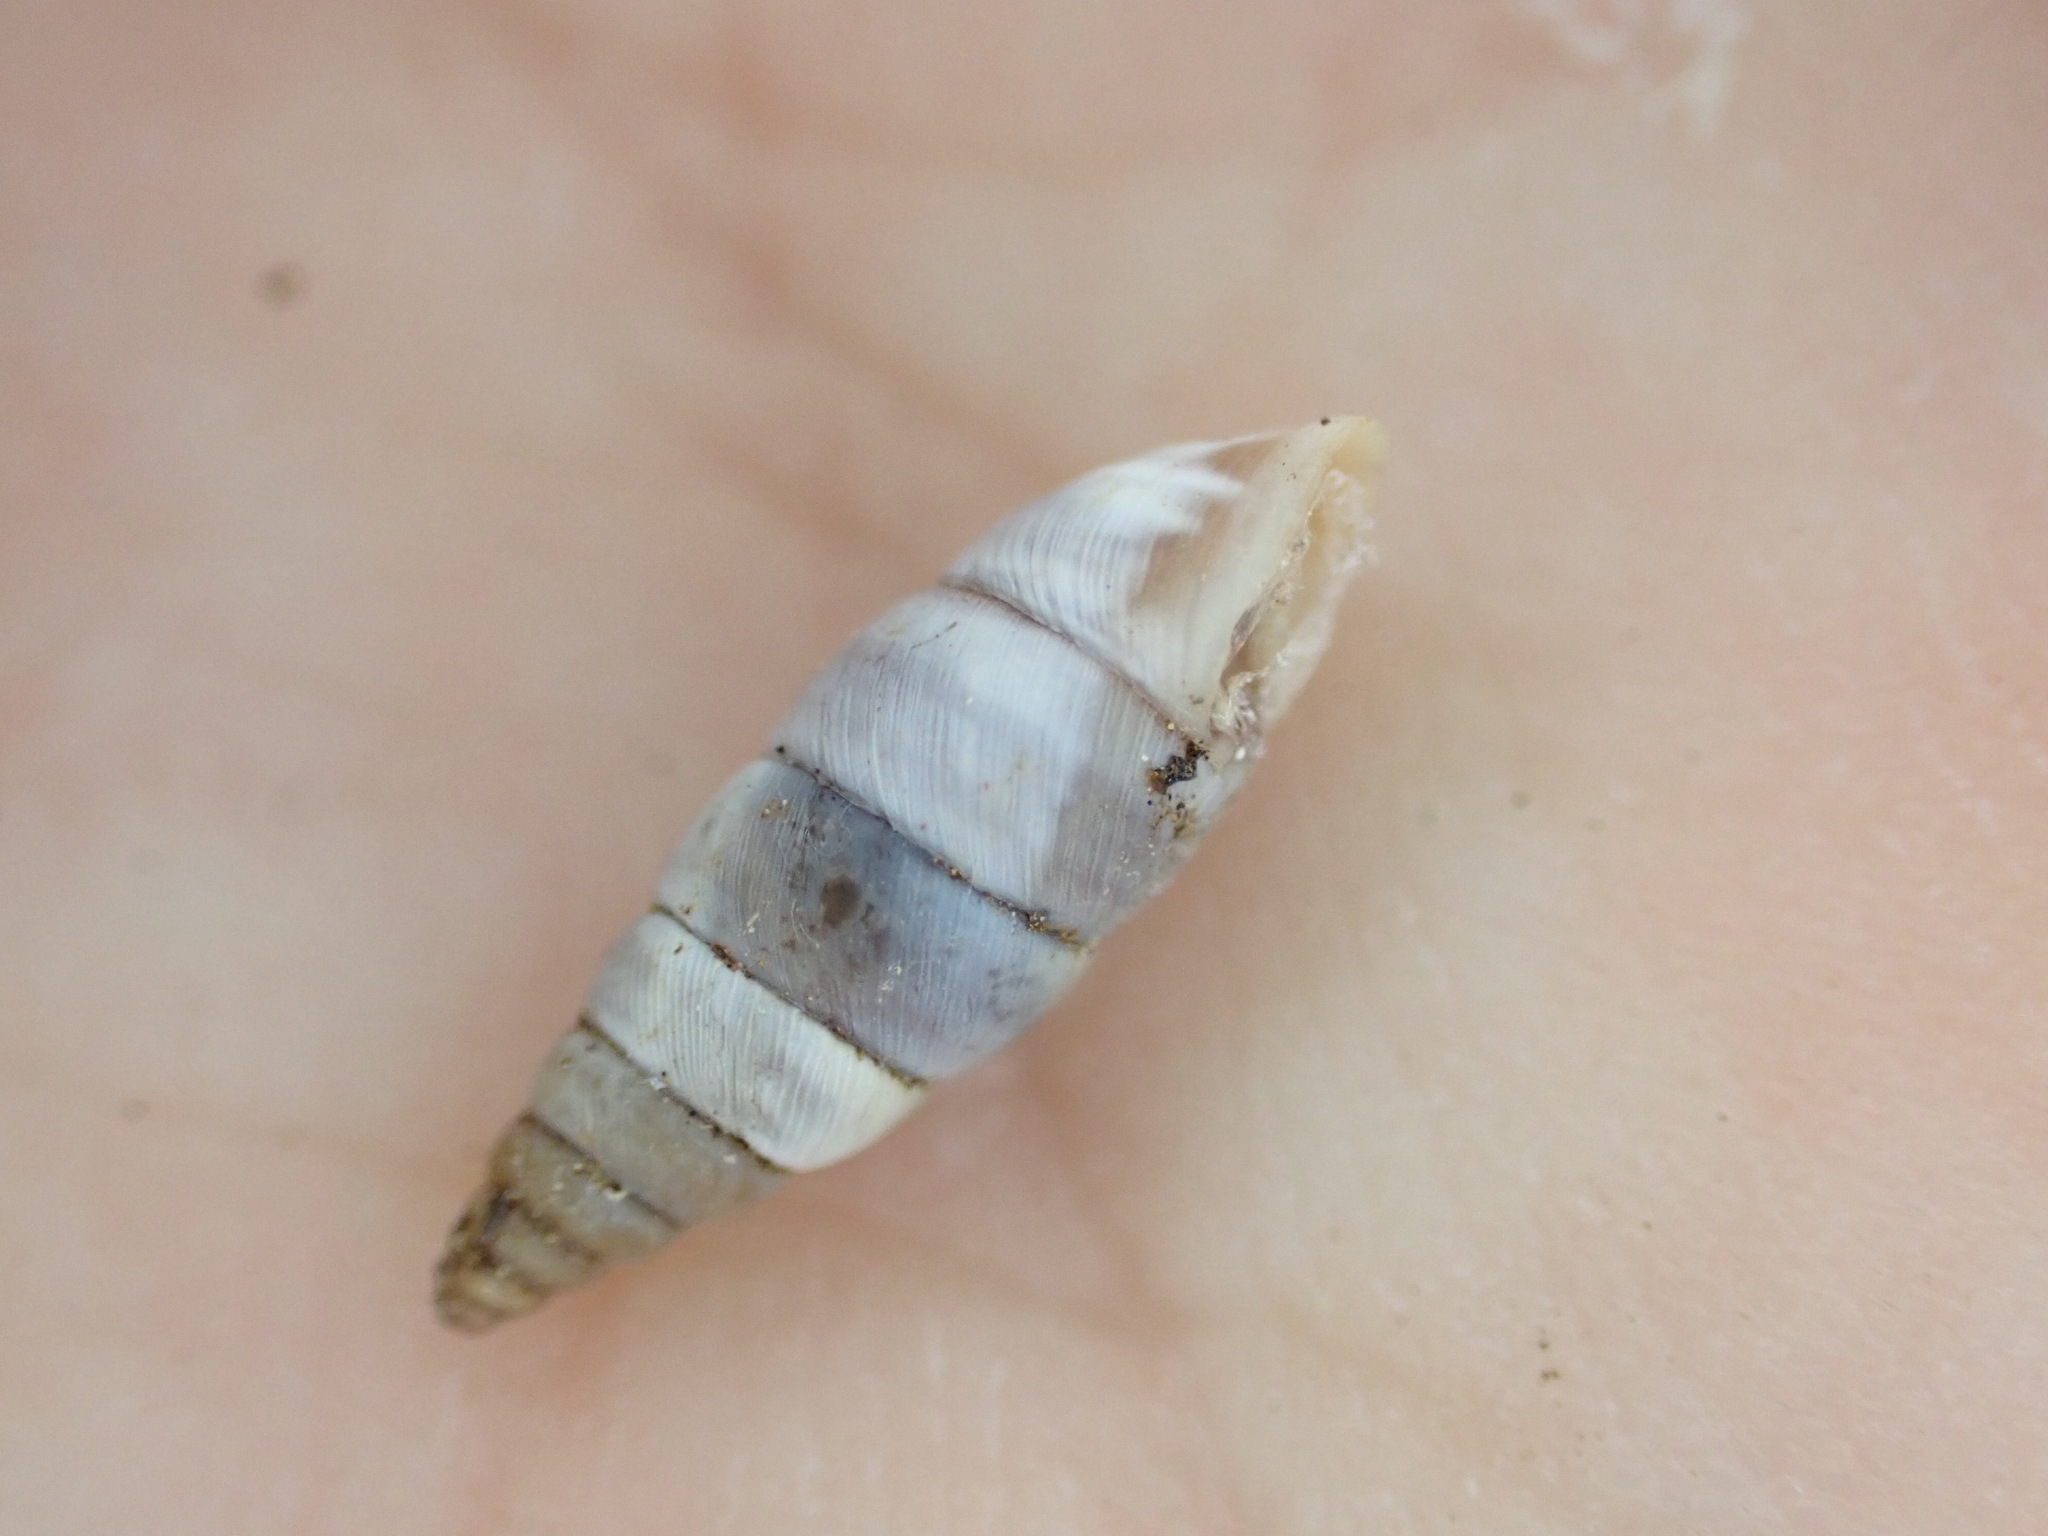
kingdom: Animalia
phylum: Mollusca
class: Gastropoda
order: Stylommatophora
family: Chondrinidae
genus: Solatopupa
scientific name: Solatopupa similis
